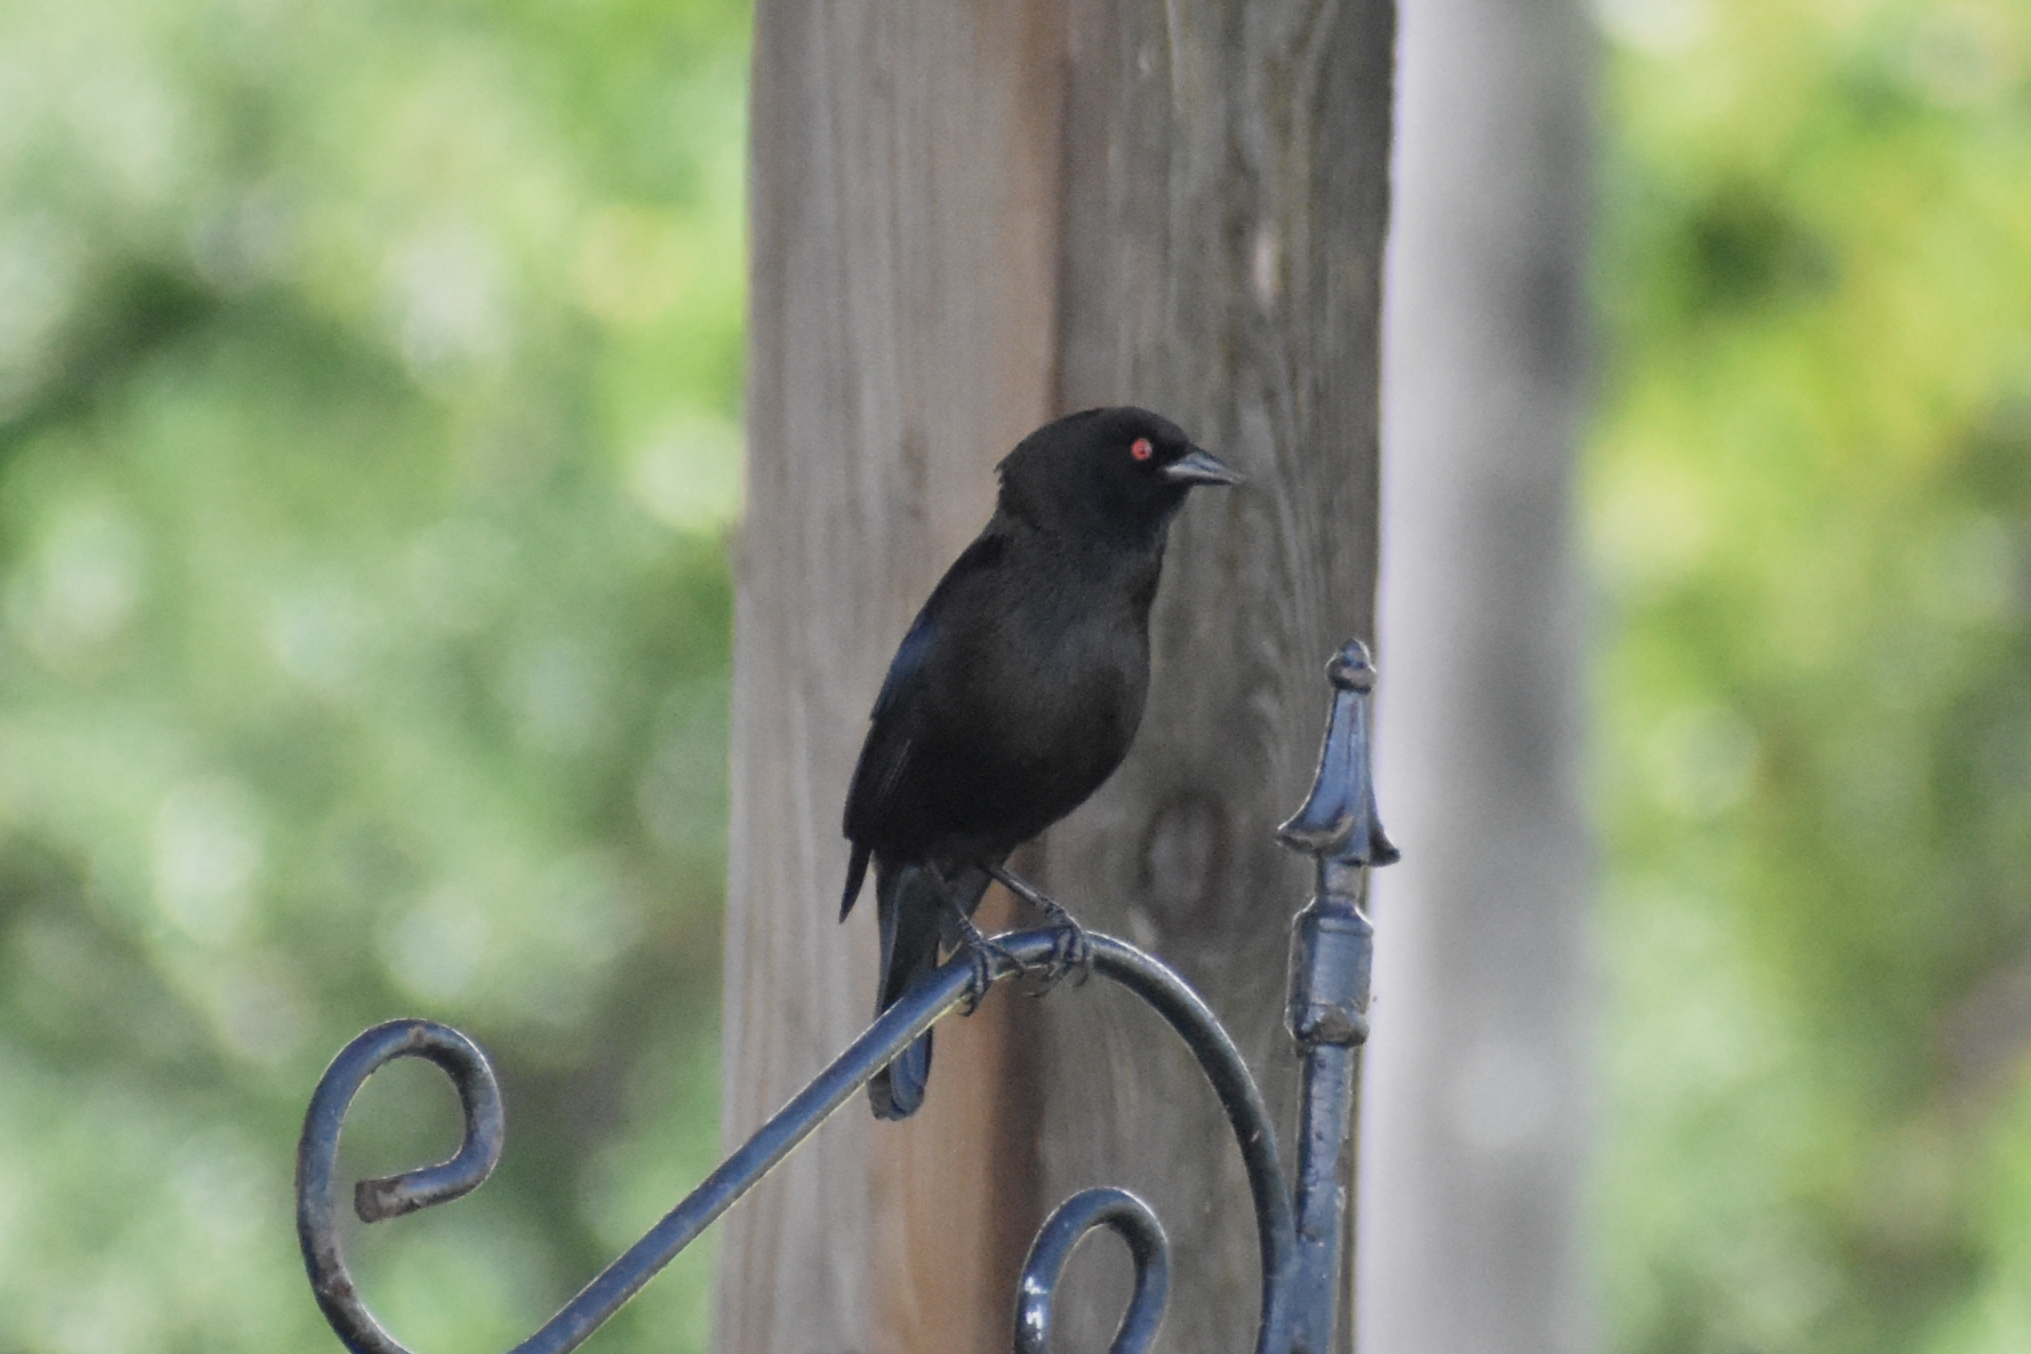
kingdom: Animalia
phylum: Chordata
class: Aves
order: Passeriformes
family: Icteridae
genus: Molothrus
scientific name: Molothrus aeneus
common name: Bronzed cowbird
